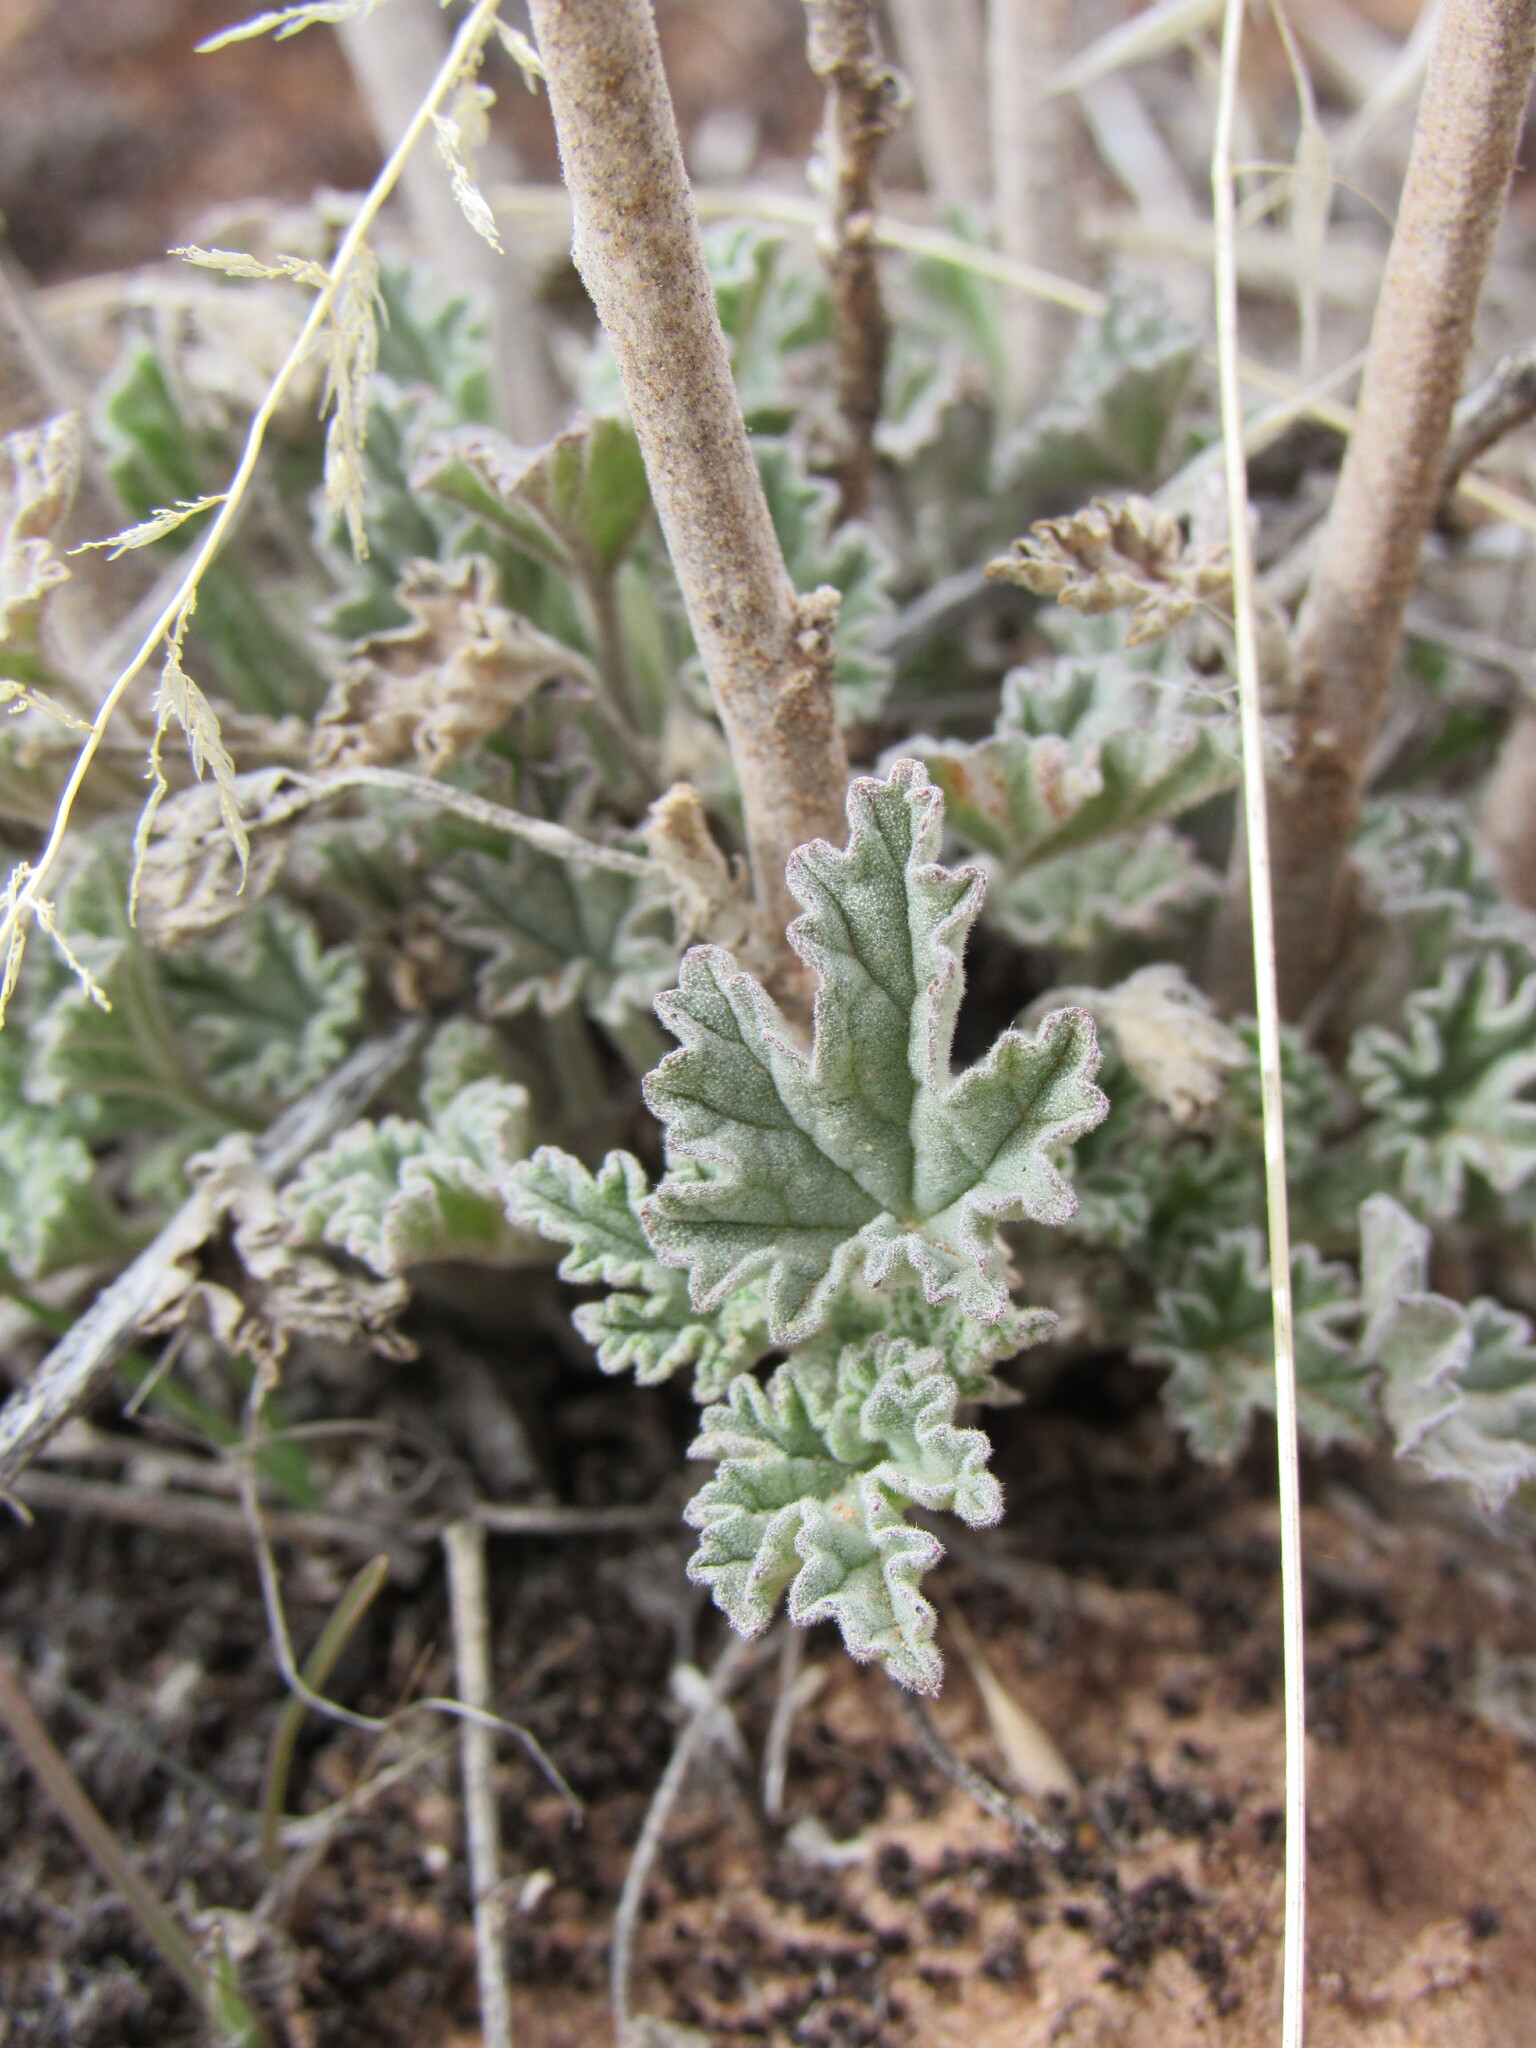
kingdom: Plantae
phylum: Tracheophyta
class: Magnoliopsida
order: Malvales
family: Malvaceae
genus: Sphaeralcea
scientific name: Sphaeralcea grossulariifolia
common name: Current-leaf globe-mallow
